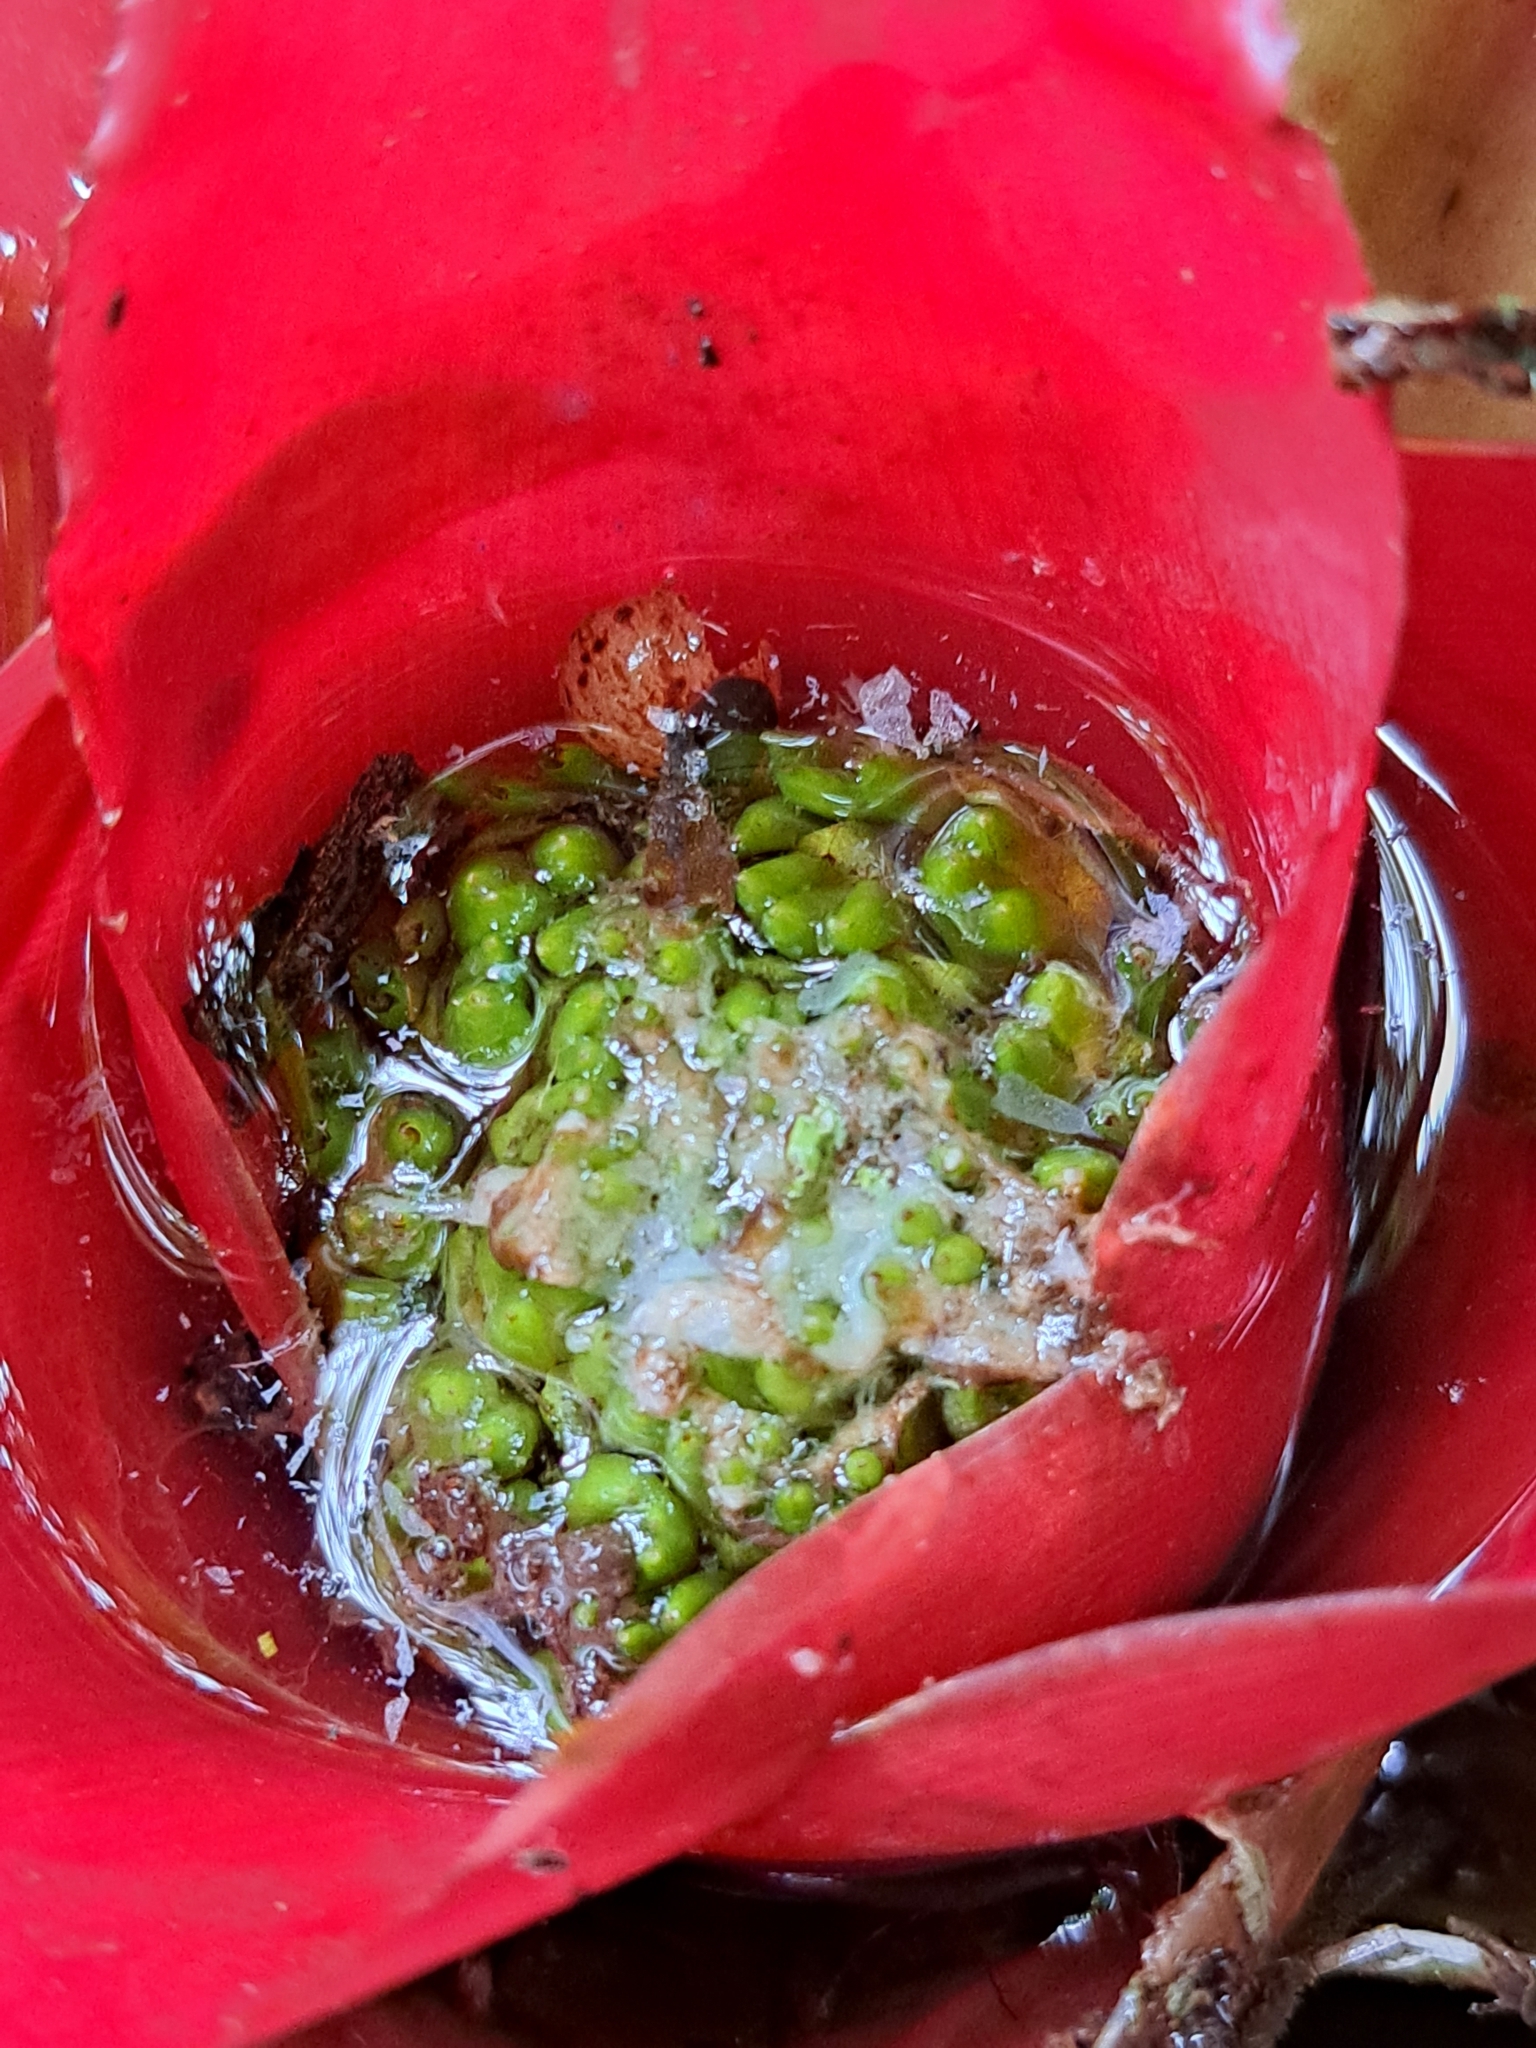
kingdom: Plantae
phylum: Tracheophyta
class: Liliopsida
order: Poales
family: Bromeliaceae
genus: Neoregelia
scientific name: Neoregelia carolinae
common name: Blushing bromeliad
